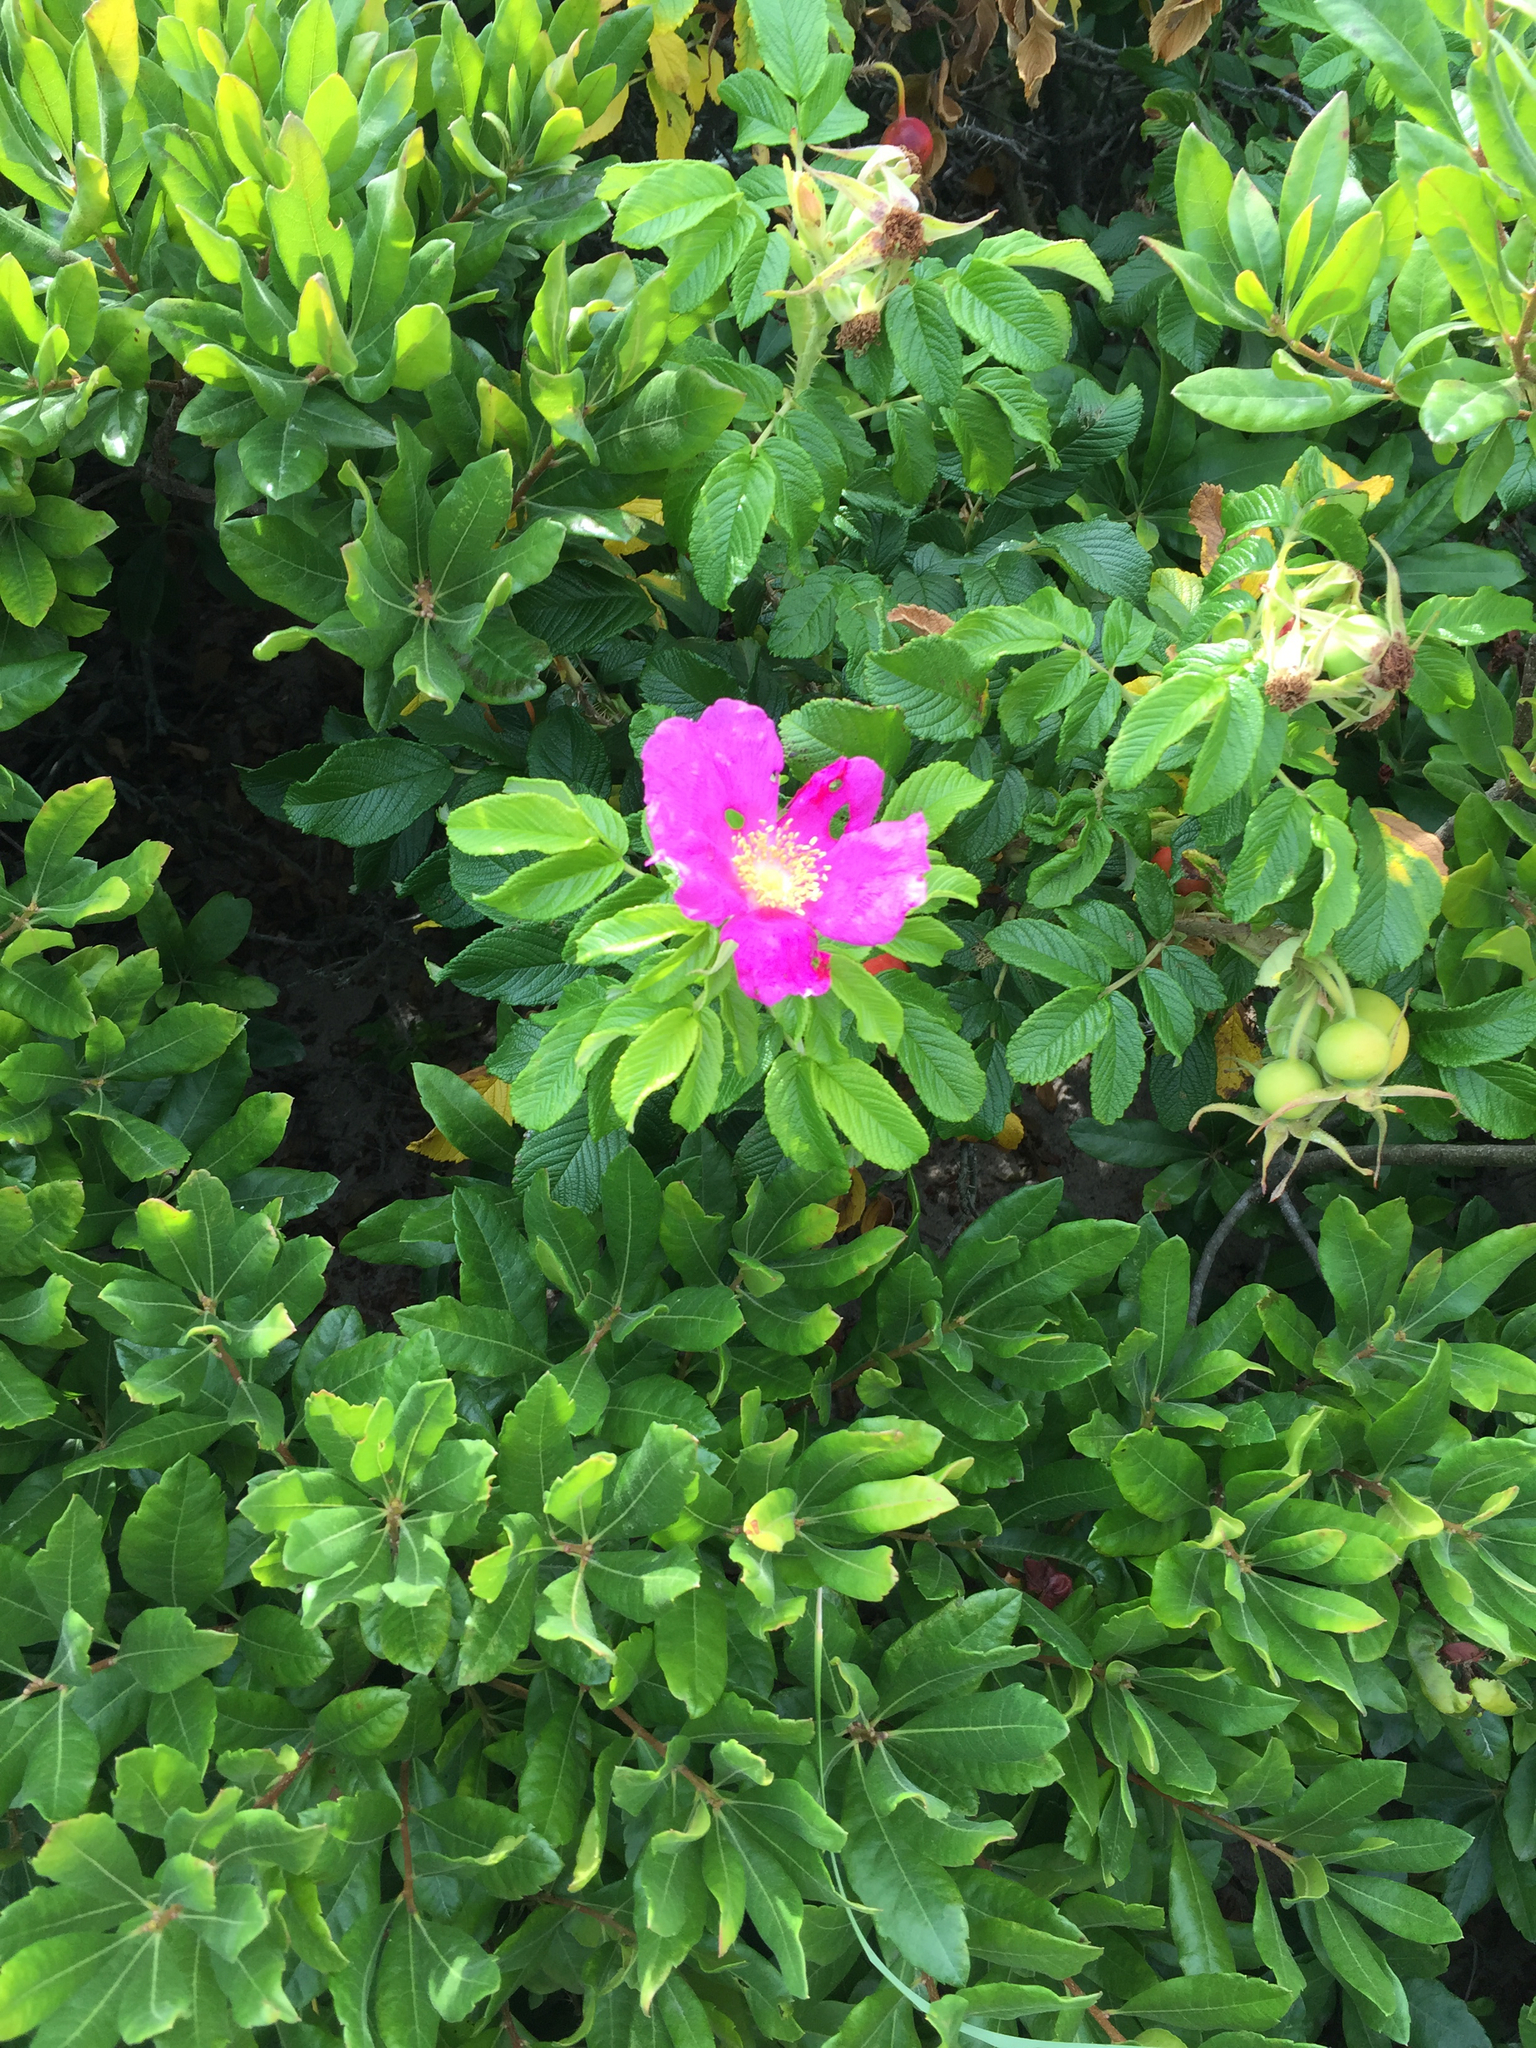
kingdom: Plantae
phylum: Tracheophyta
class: Magnoliopsida
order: Rosales
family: Rosaceae
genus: Rosa
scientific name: Rosa rugosa
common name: Japanese rose
